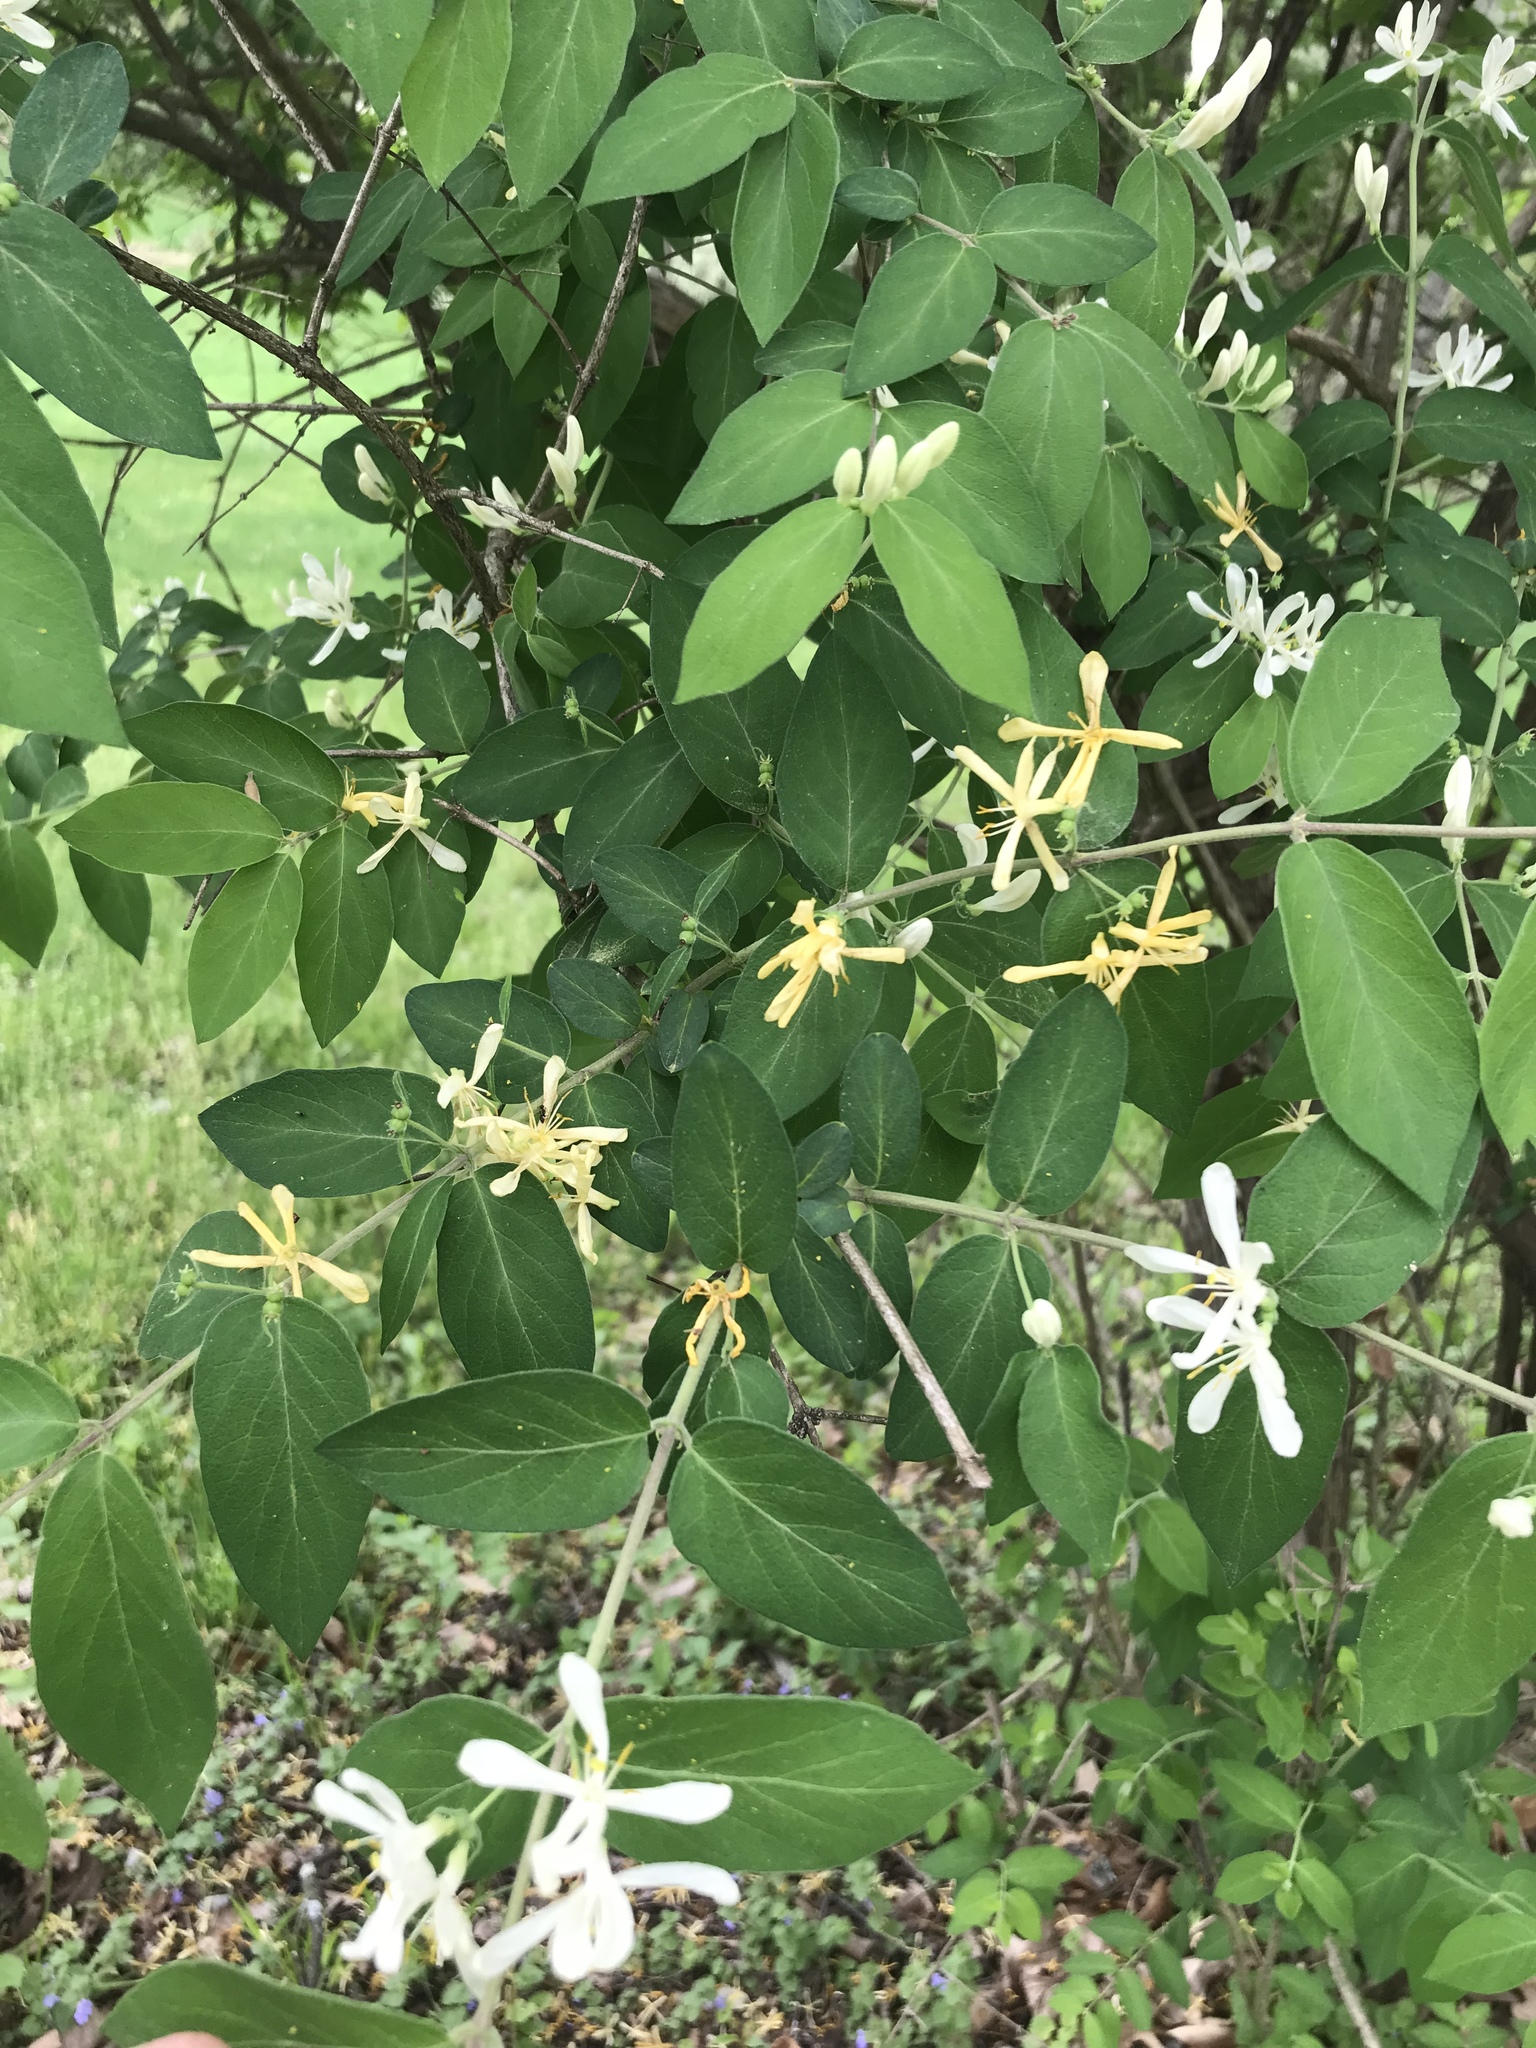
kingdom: Plantae
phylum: Tracheophyta
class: Magnoliopsida
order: Dipsacales
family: Caprifoliaceae
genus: Lonicera
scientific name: Lonicera morrowii
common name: Morrow's honeysuckle
